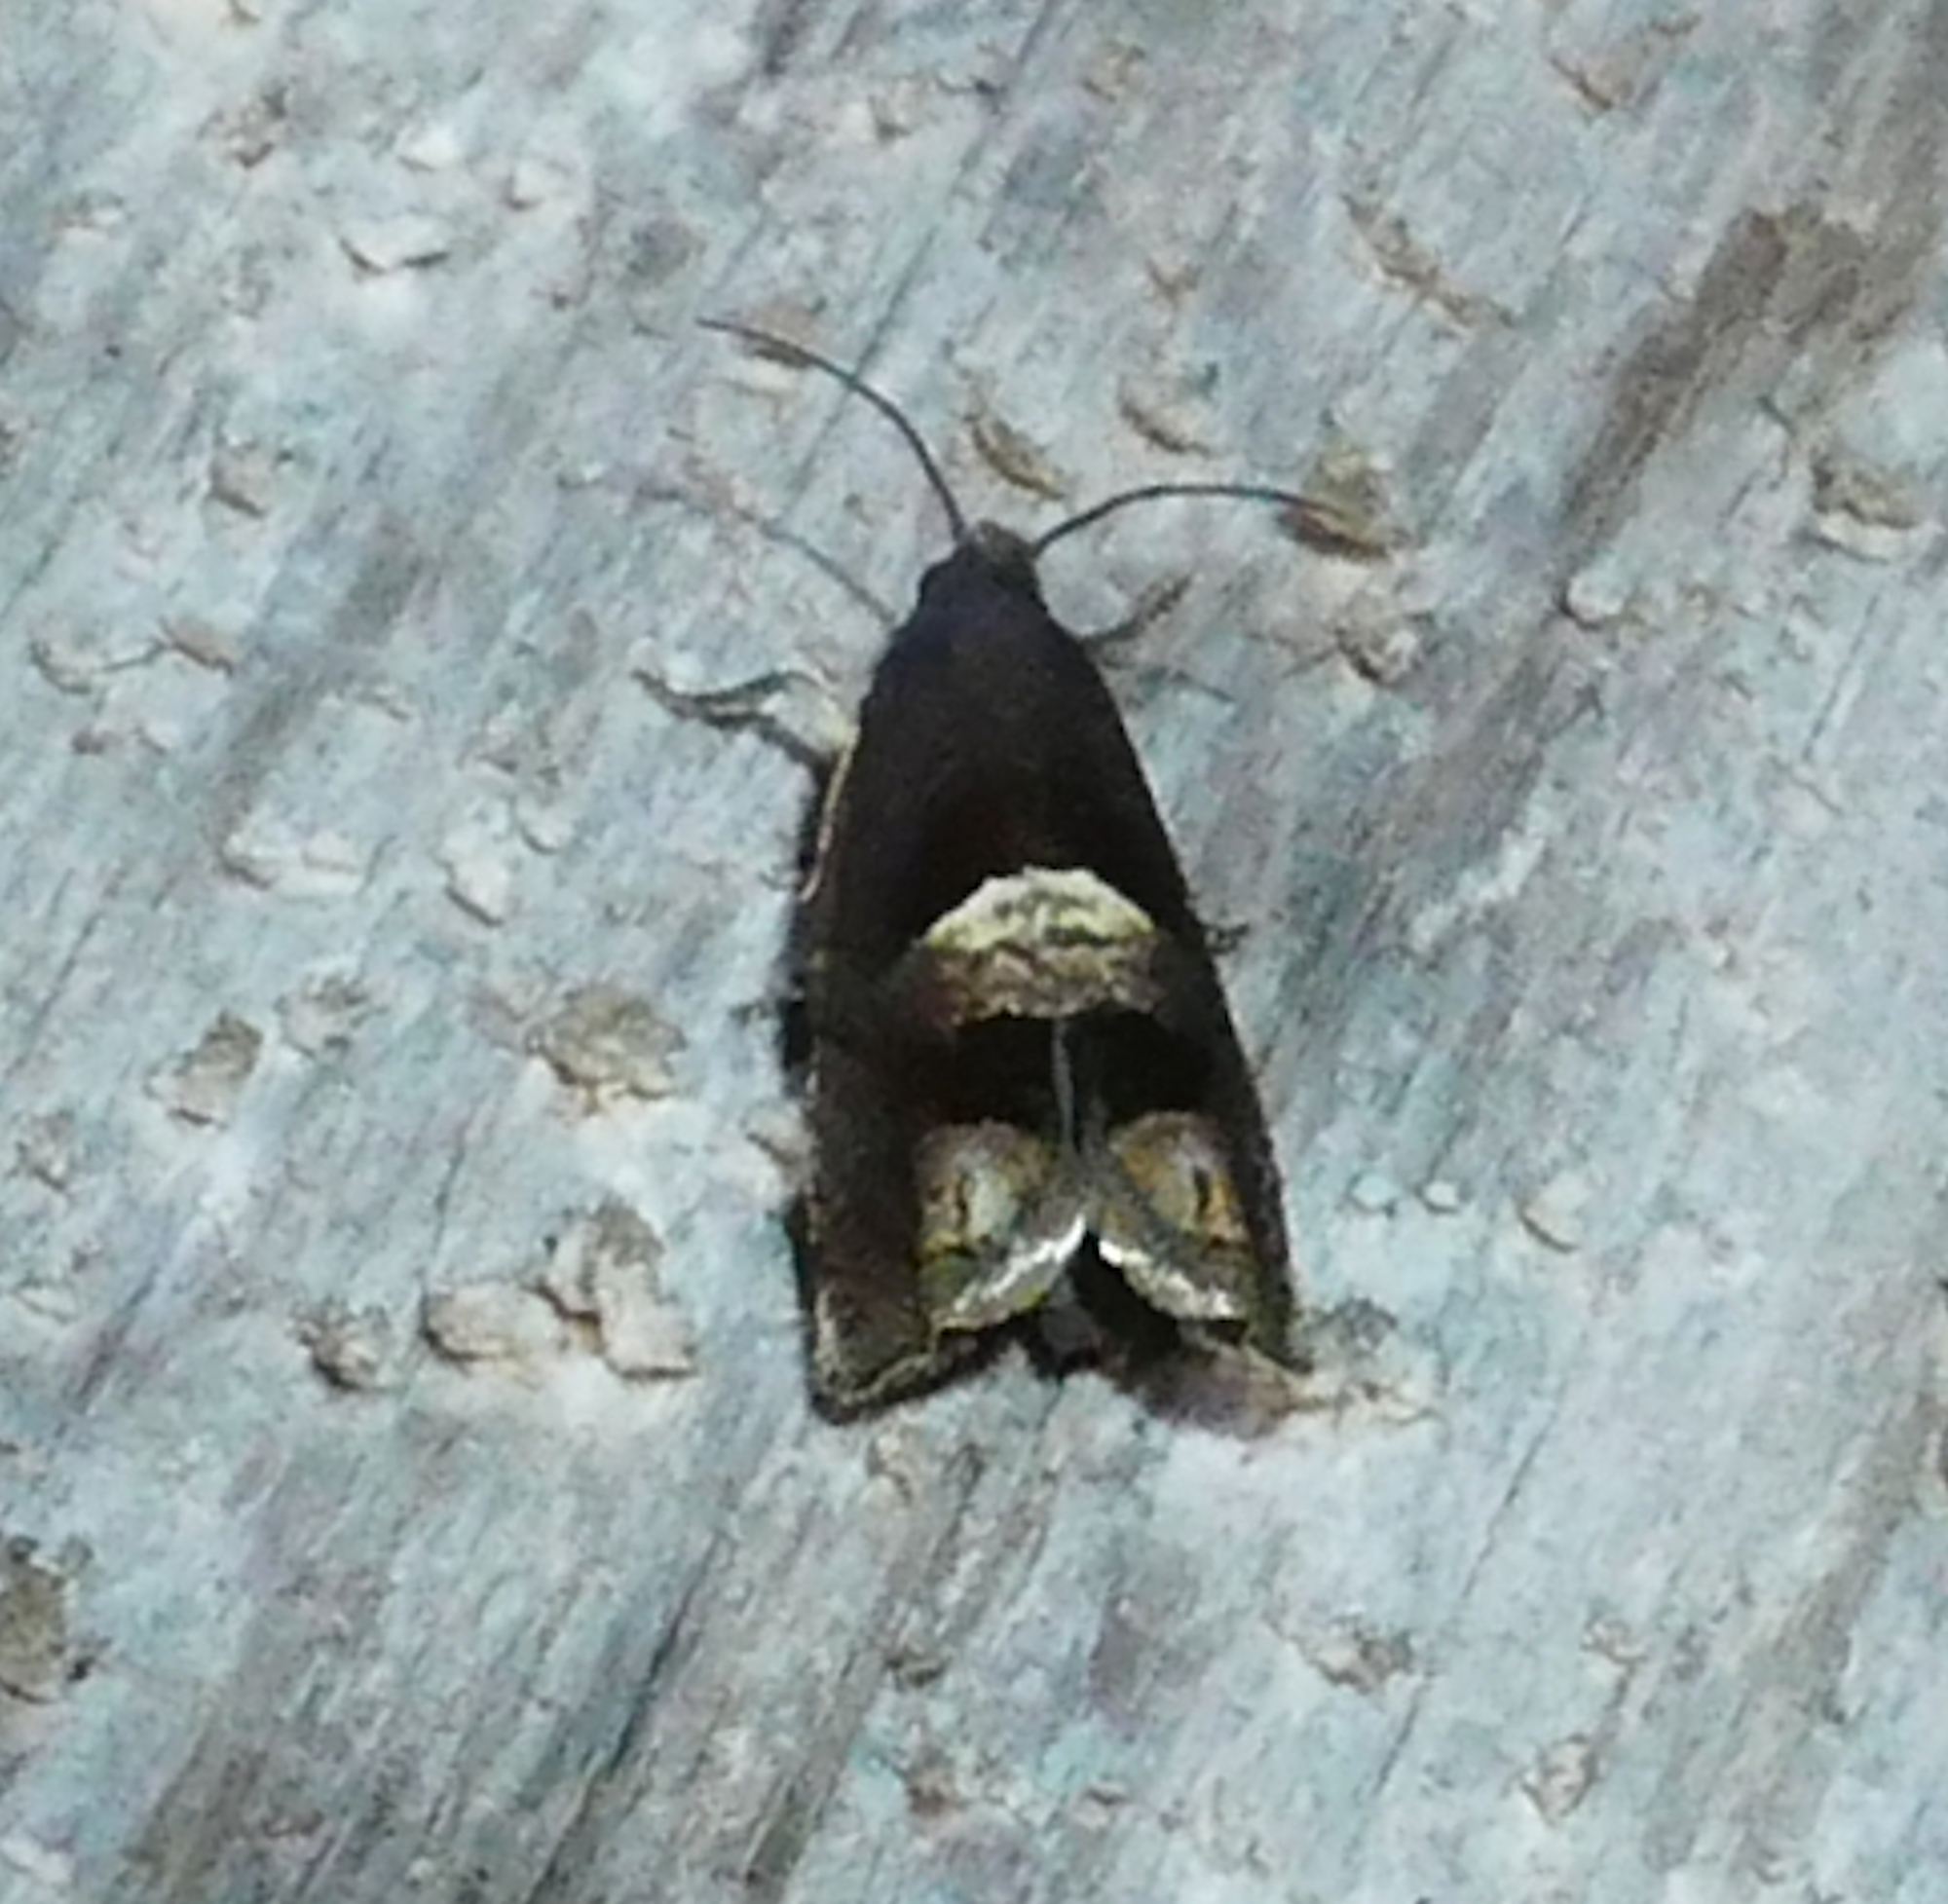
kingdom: Animalia
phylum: Arthropoda
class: Insecta
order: Lepidoptera
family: Tortricidae
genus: Epiblema
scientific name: Epiblema boxcana
